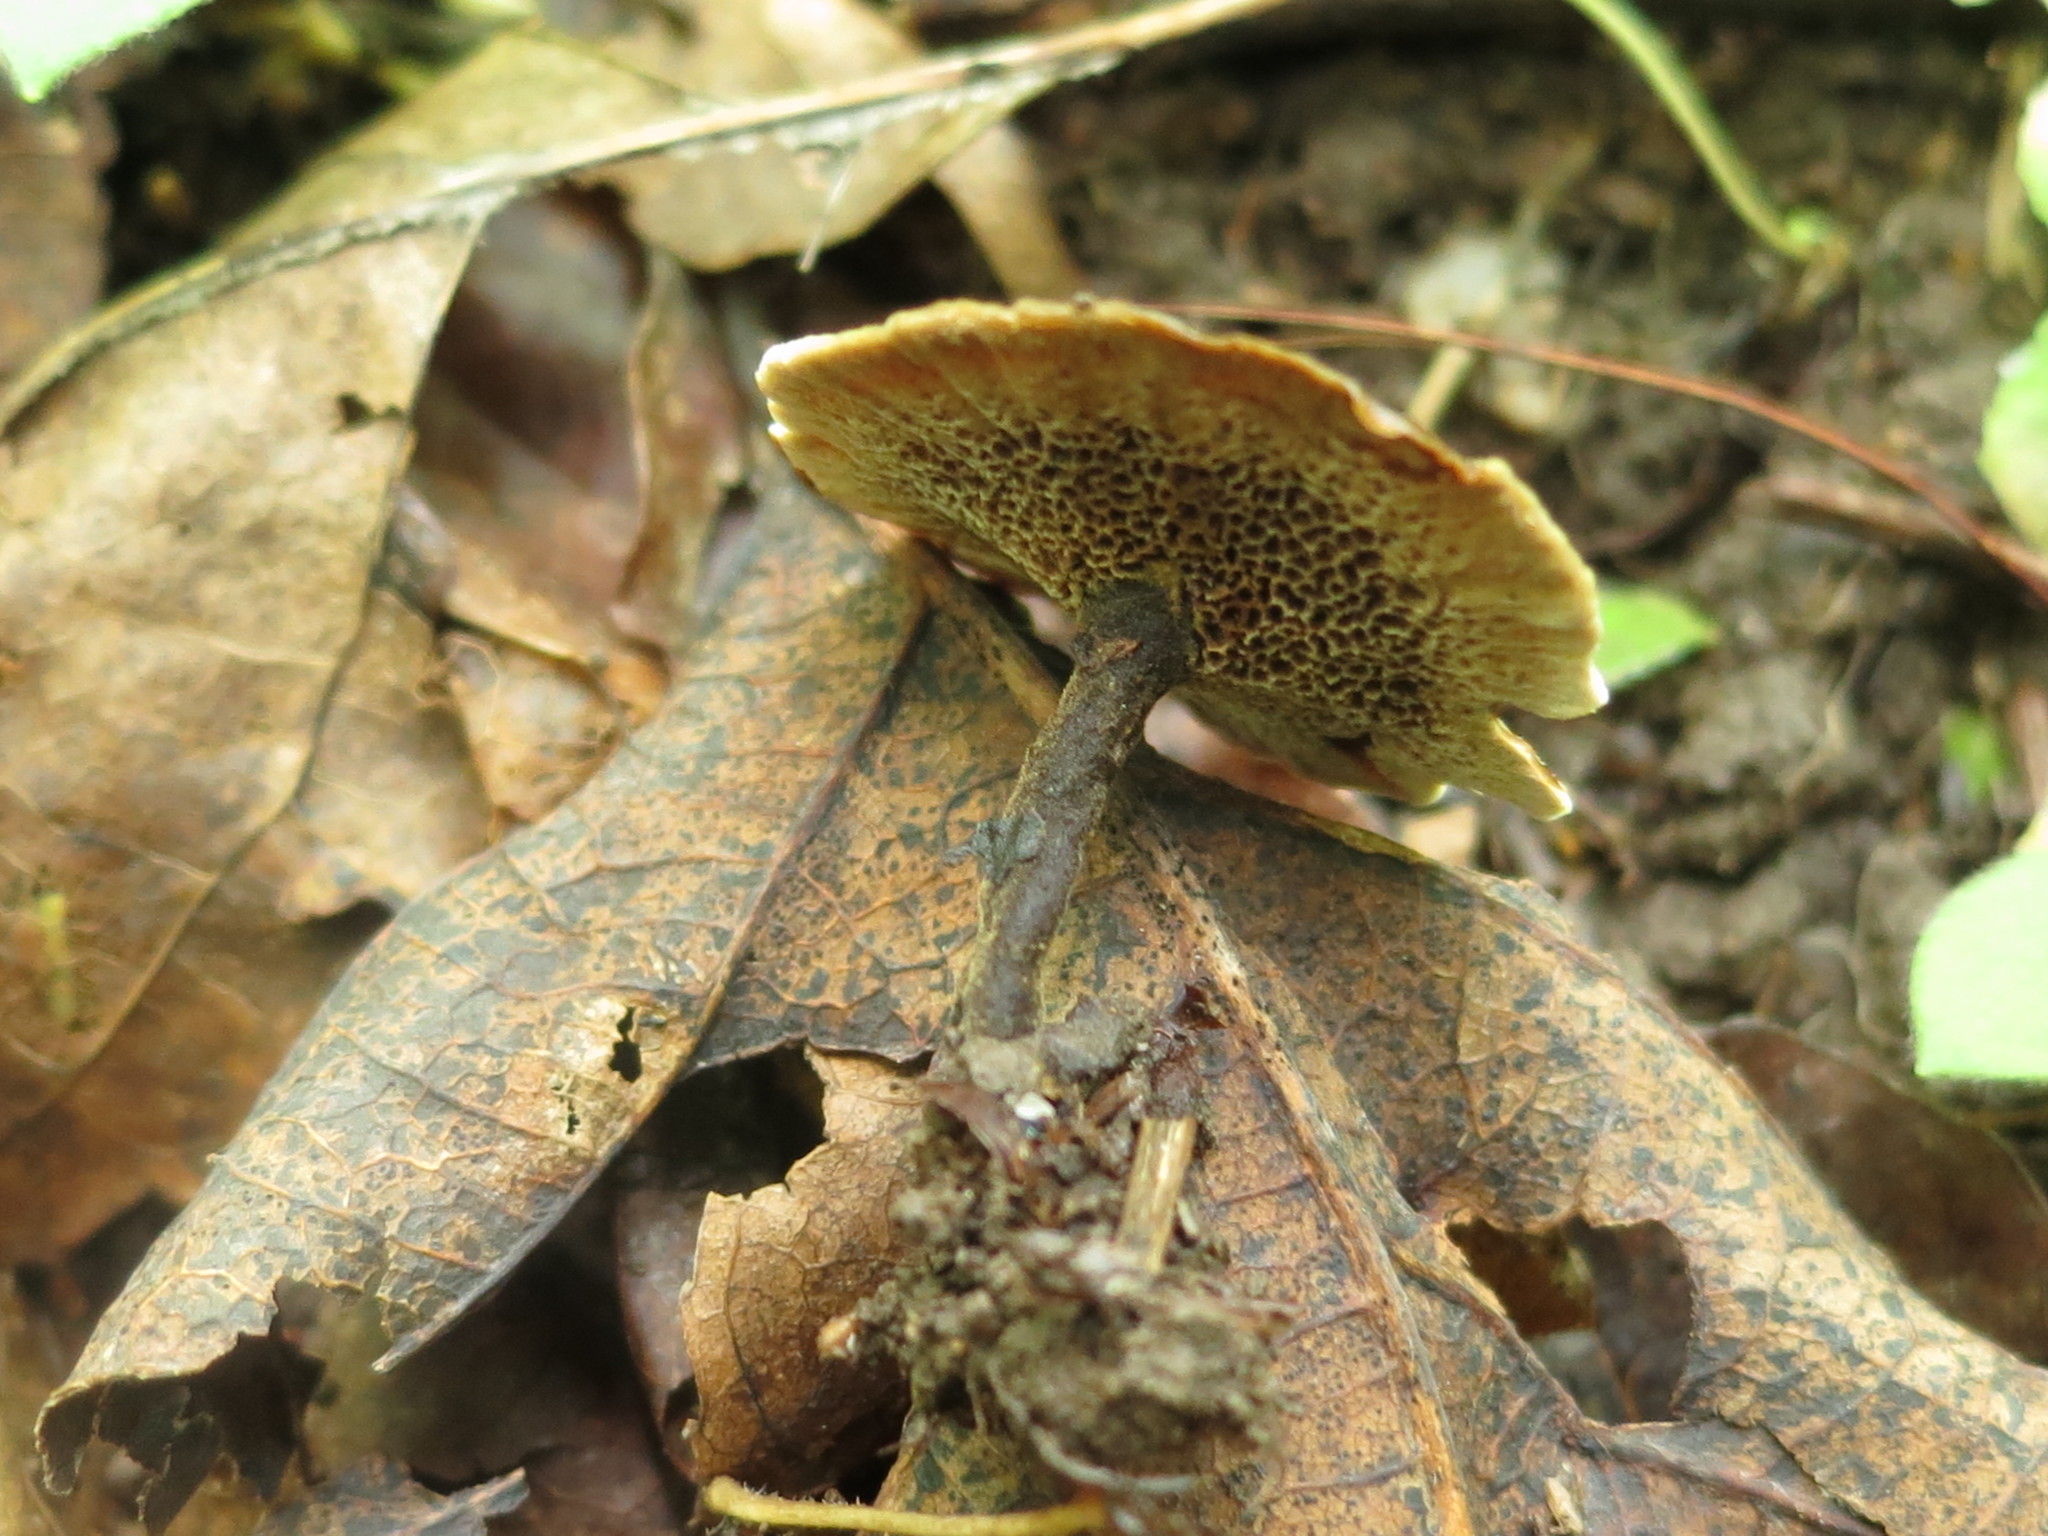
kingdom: Fungi
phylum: Basidiomycota
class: Agaricomycetes
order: Hymenochaetales
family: Hymenochaetaceae
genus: Coltricia
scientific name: Coltricia perennis
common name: Tiger's eye
